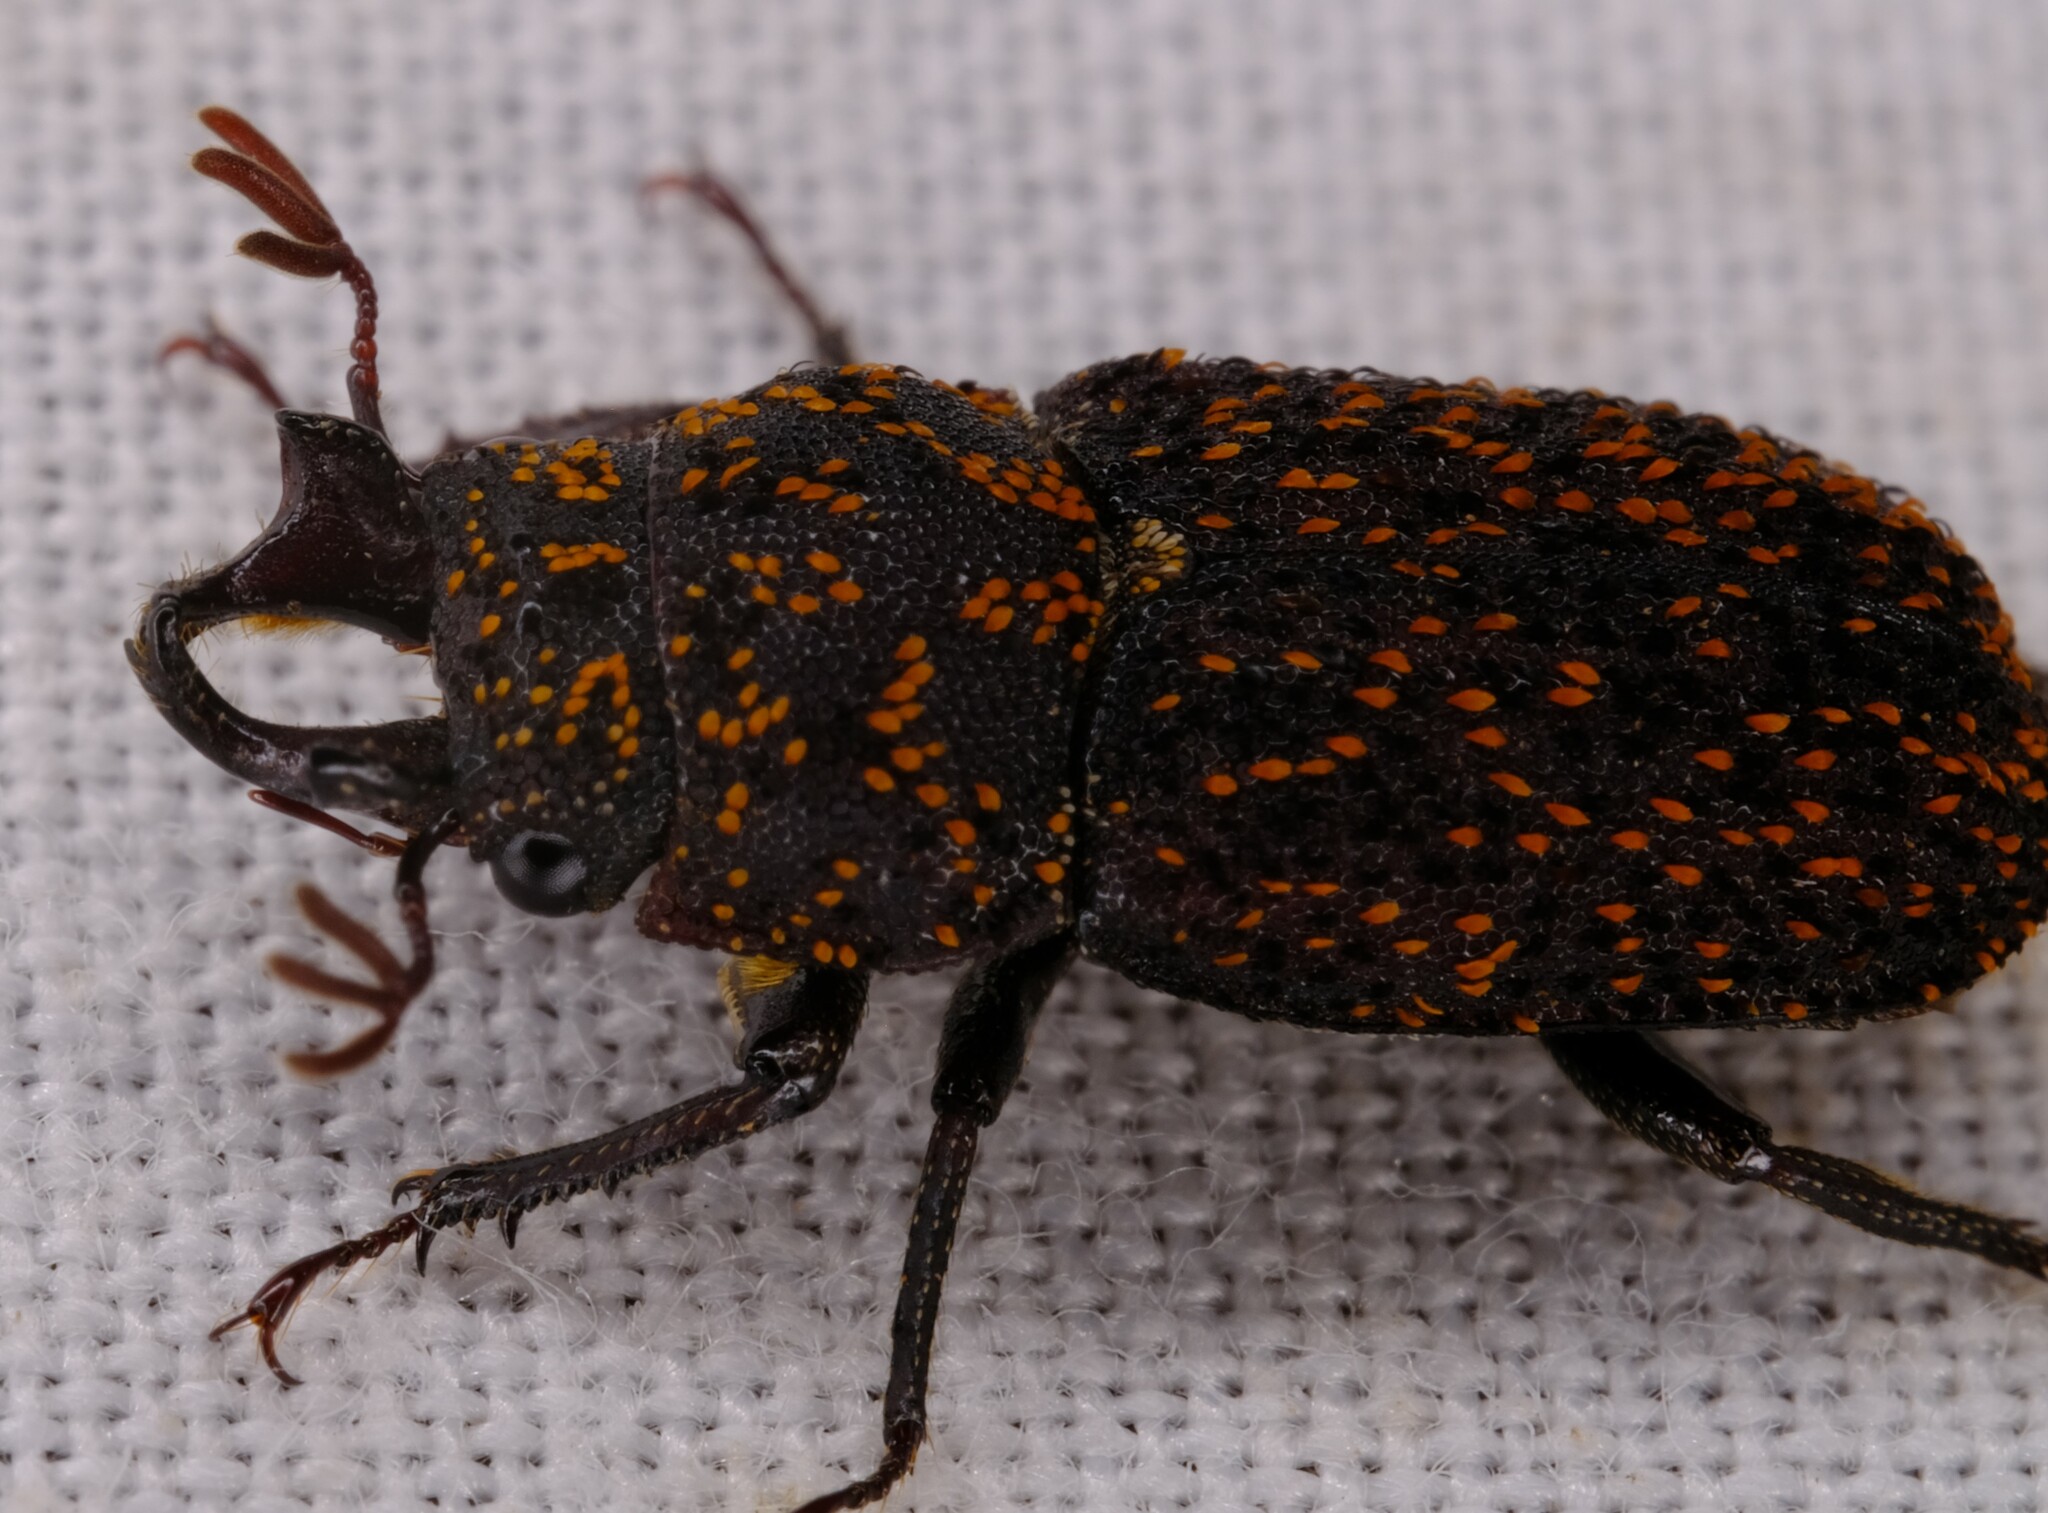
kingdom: Animalia
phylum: Arthropoda
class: Insecta
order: Coleoptera
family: Lucanidae
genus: Ceratognathus
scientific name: Ceratognathus froggatti
